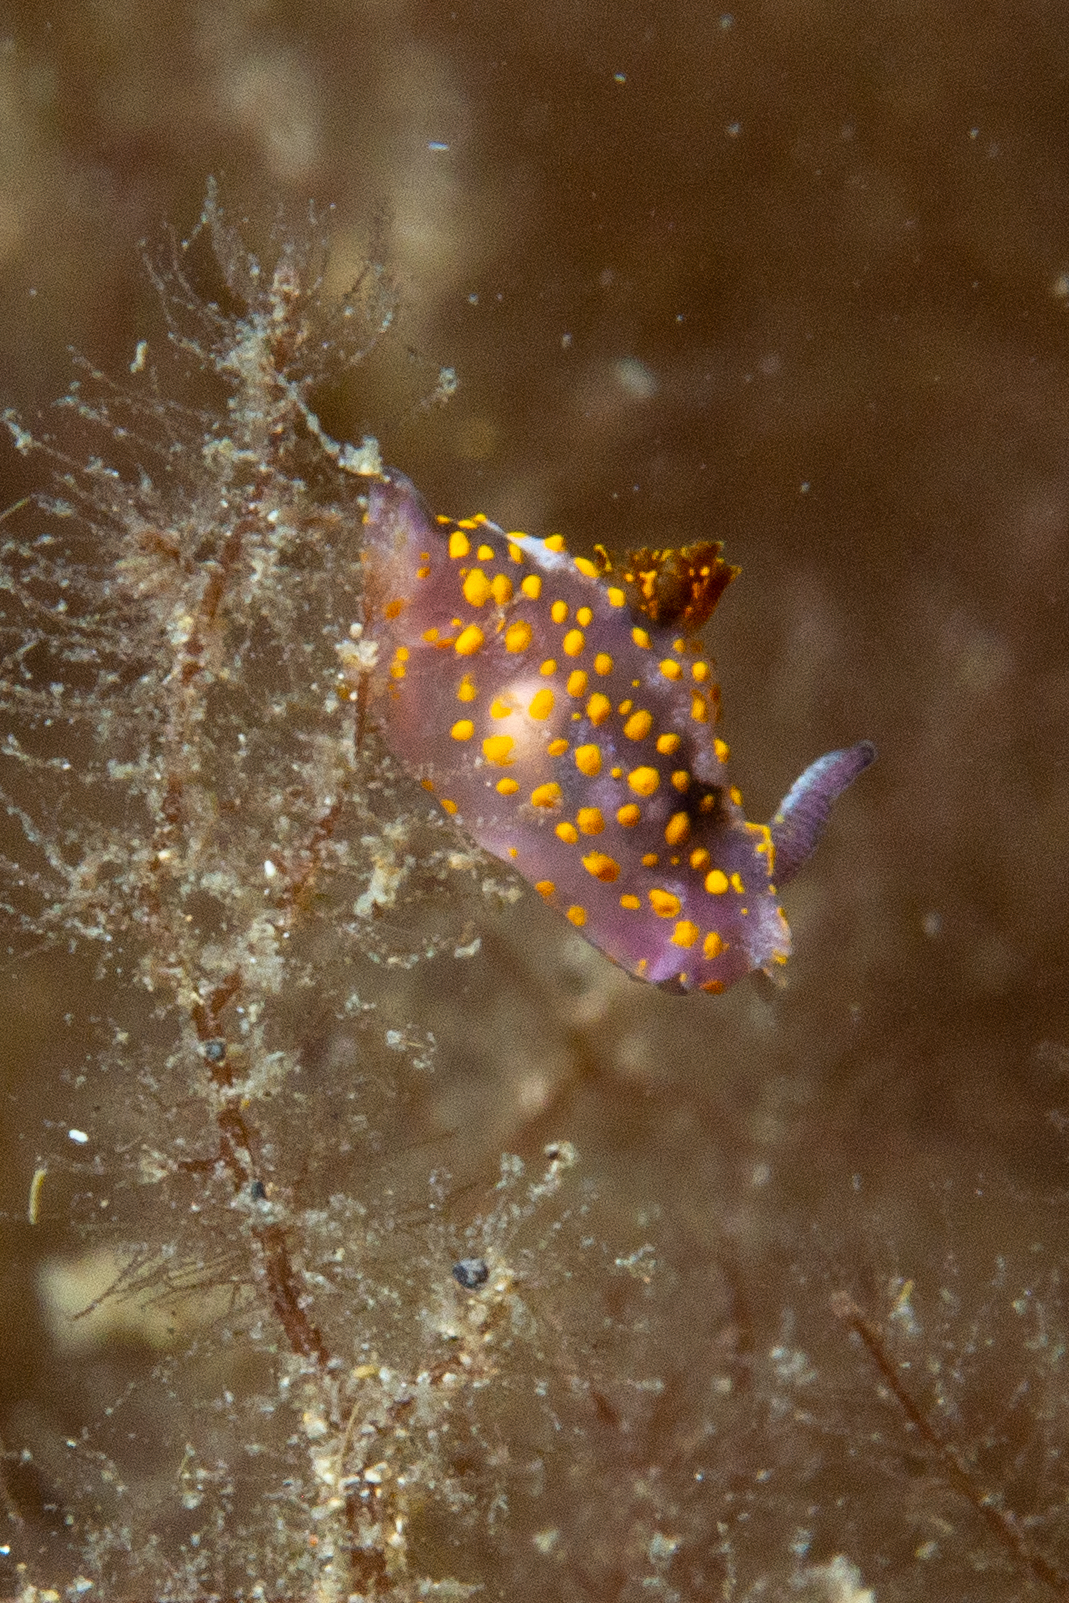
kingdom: Animalia
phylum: Mollusca
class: Gastropoda
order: Nudibranchia
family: Polyceridae
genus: Polycera
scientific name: Polycera janjukia
